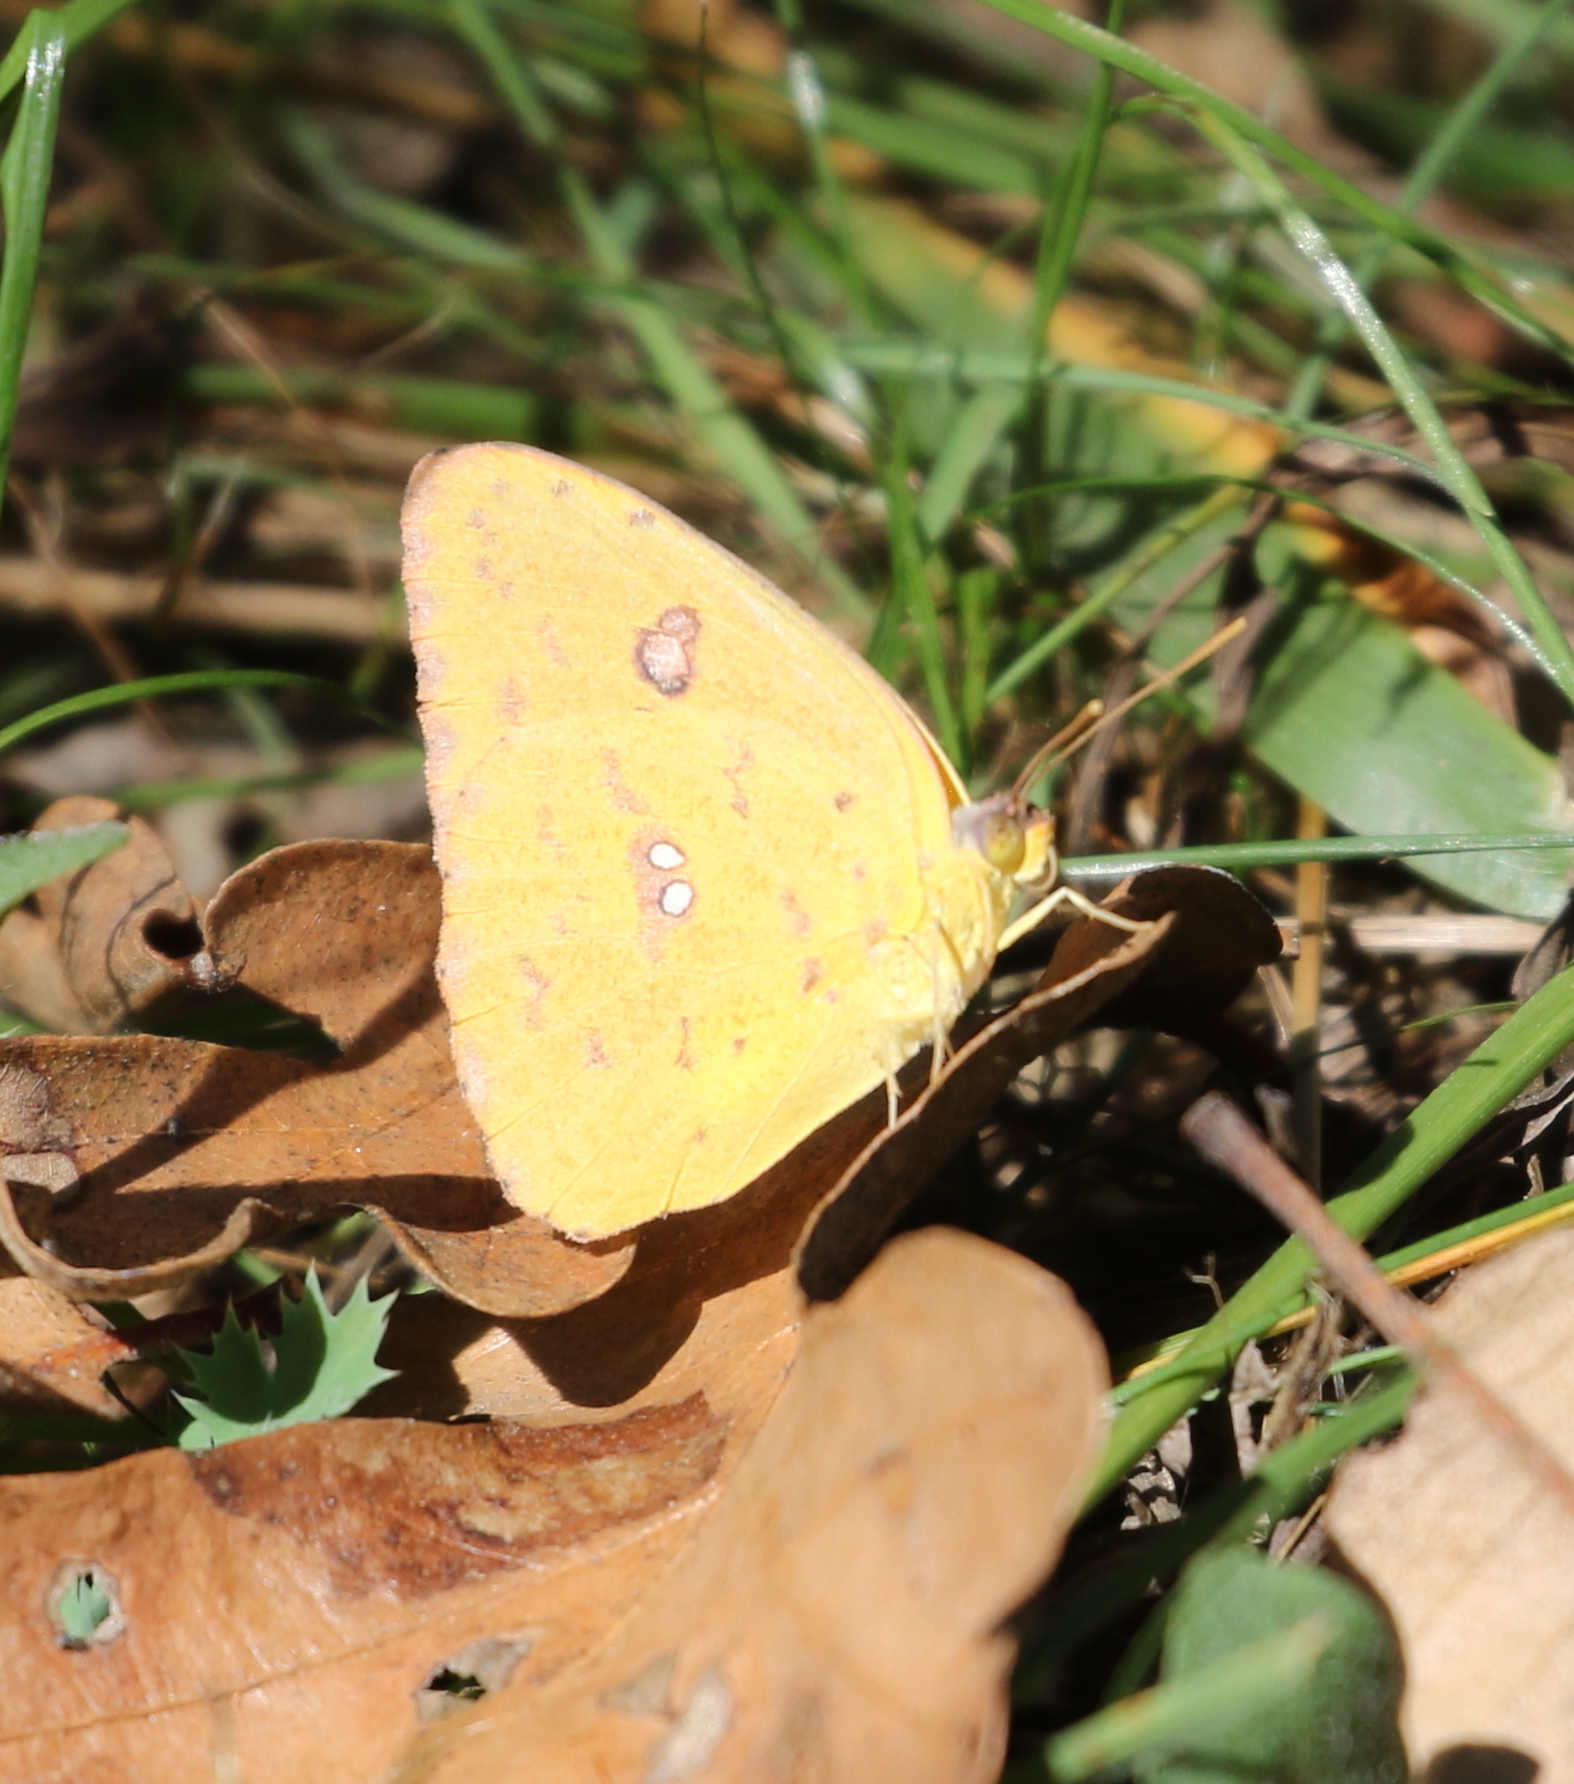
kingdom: Animalia
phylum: Arthropoda
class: Insecta
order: Lepidoptera
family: Pieridae
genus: Phoebis
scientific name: Phoebis sennae
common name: Cloudless sulphur
